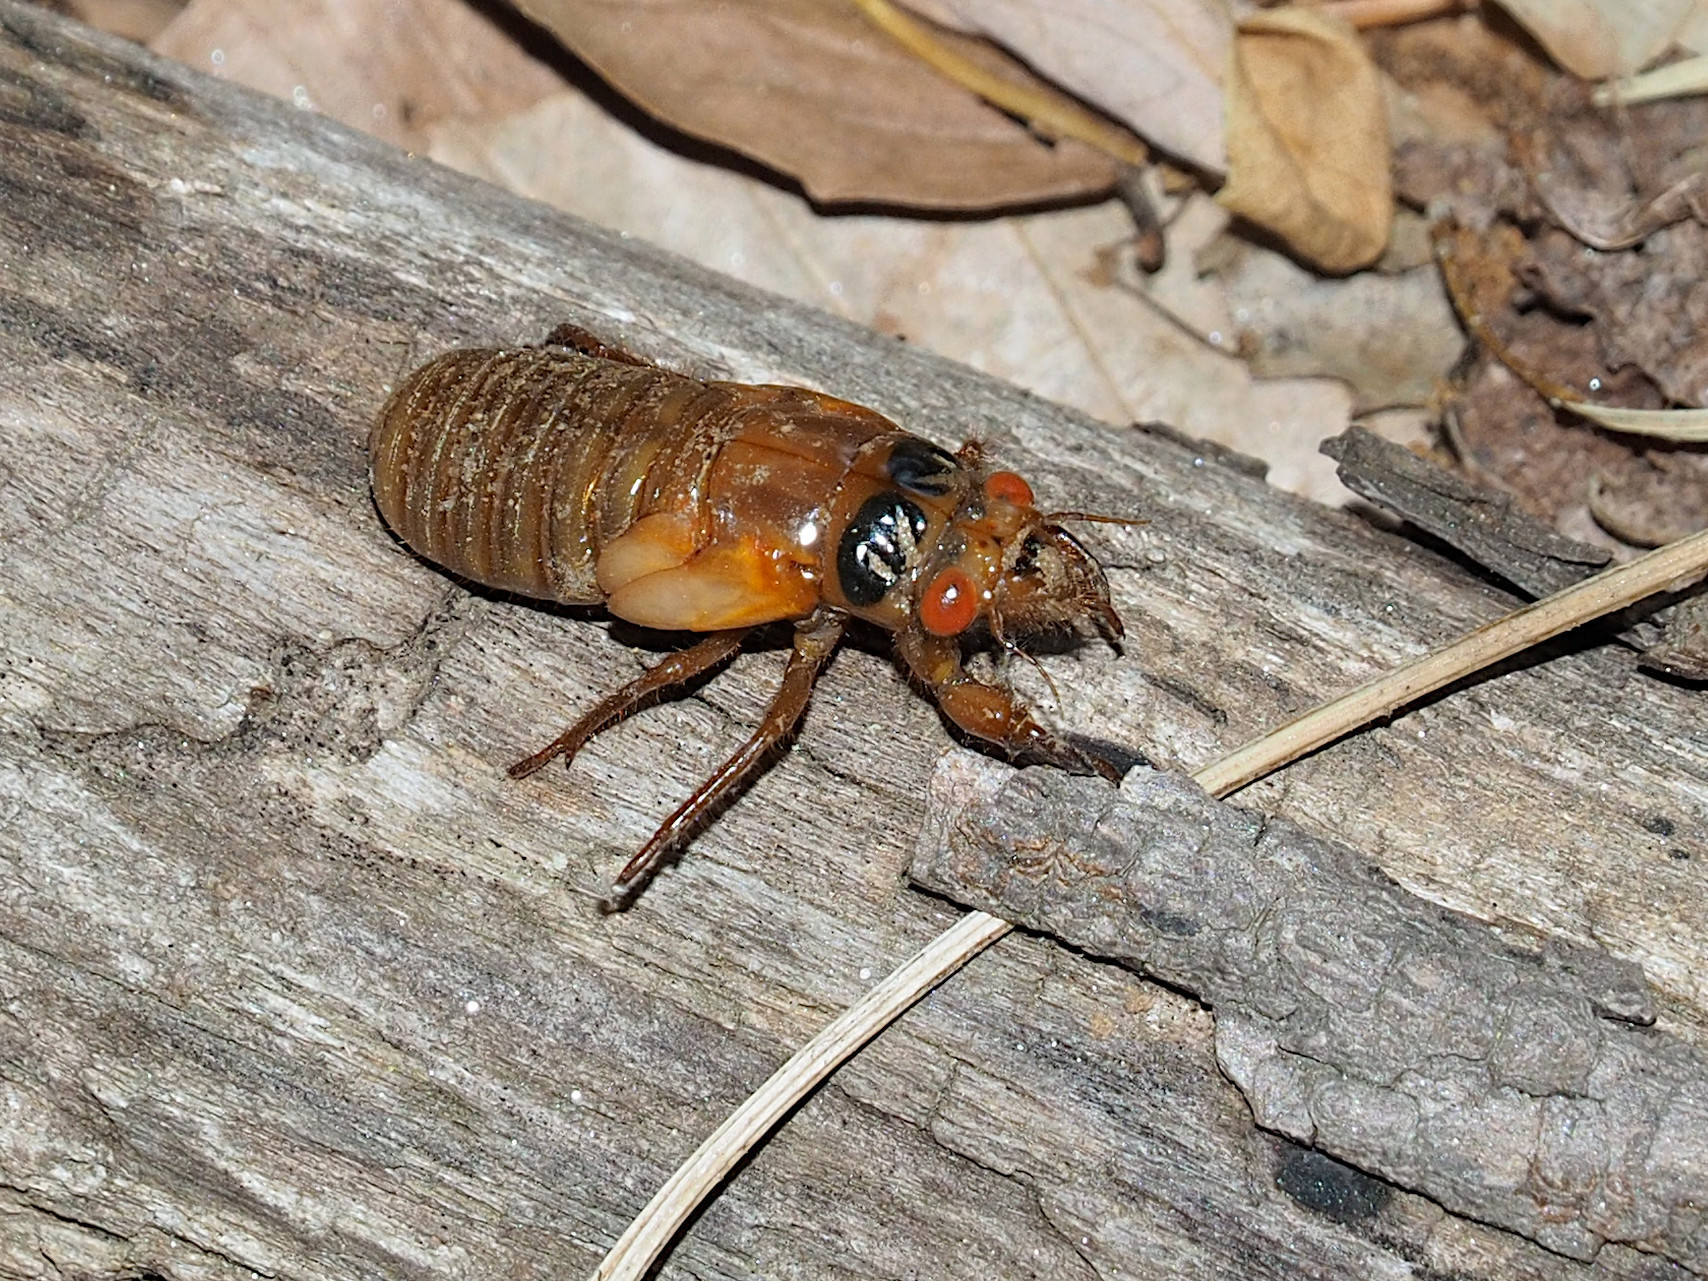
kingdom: Animalia
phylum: Arthropoda
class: Insecta
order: Hemiptera
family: Cicadidae
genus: Magicicada
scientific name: Magicicada
